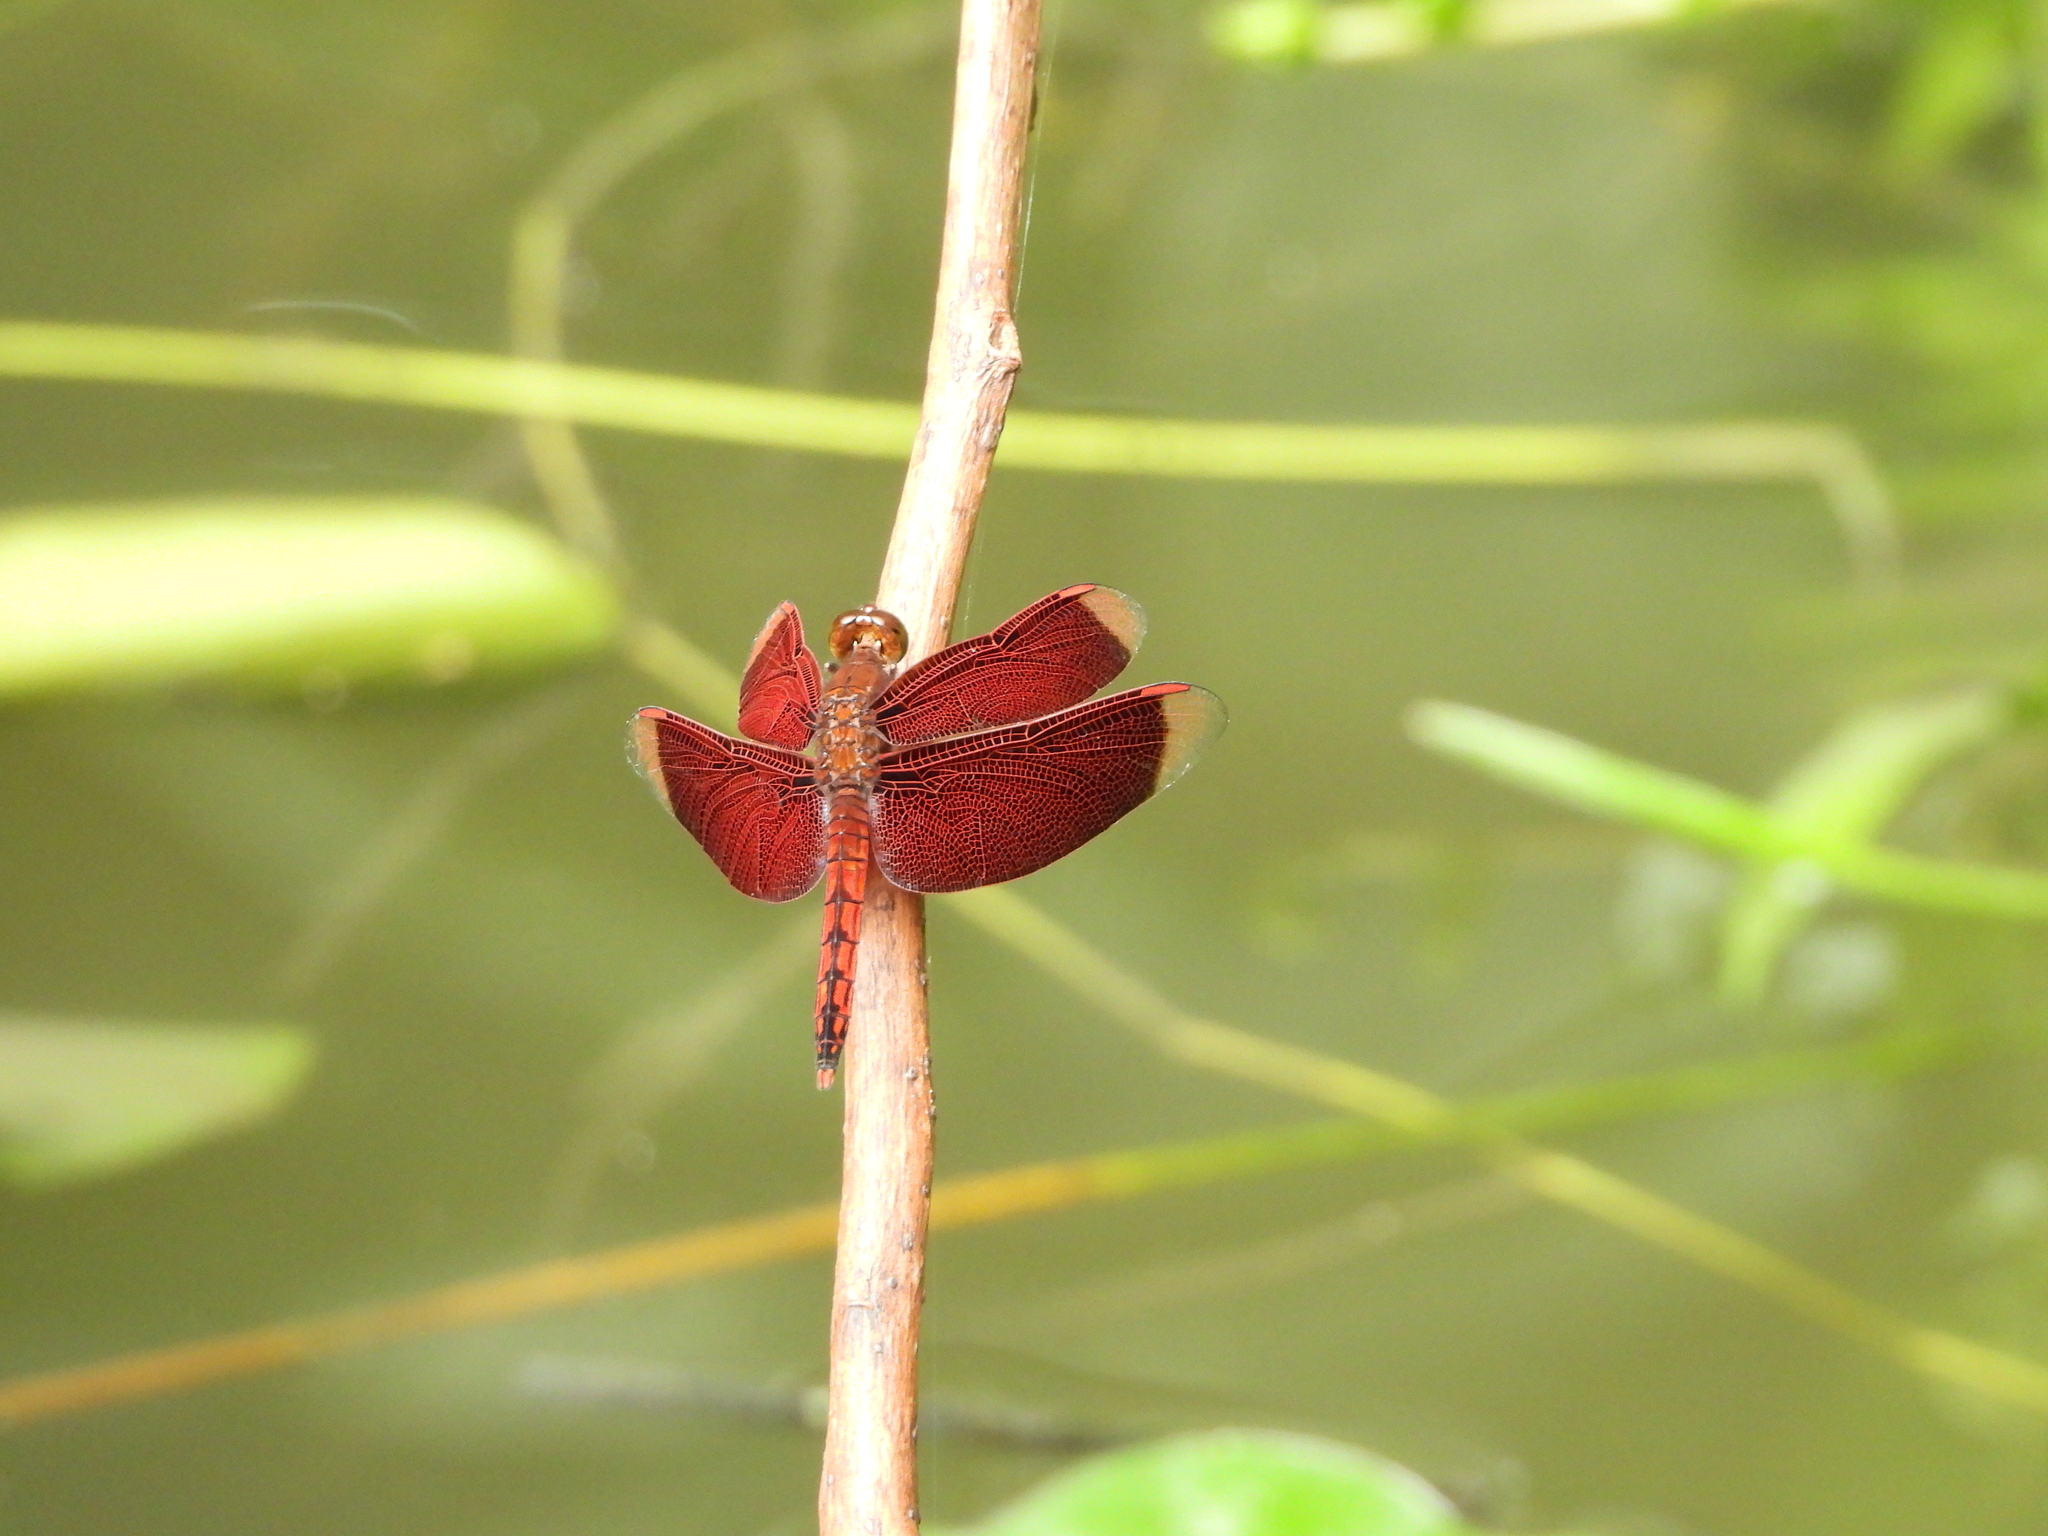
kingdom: Animalia
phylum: Arthropoda
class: Insecta
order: Odonata
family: Libellulidae
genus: Neurothemis
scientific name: Neurothemis taiwanensis
